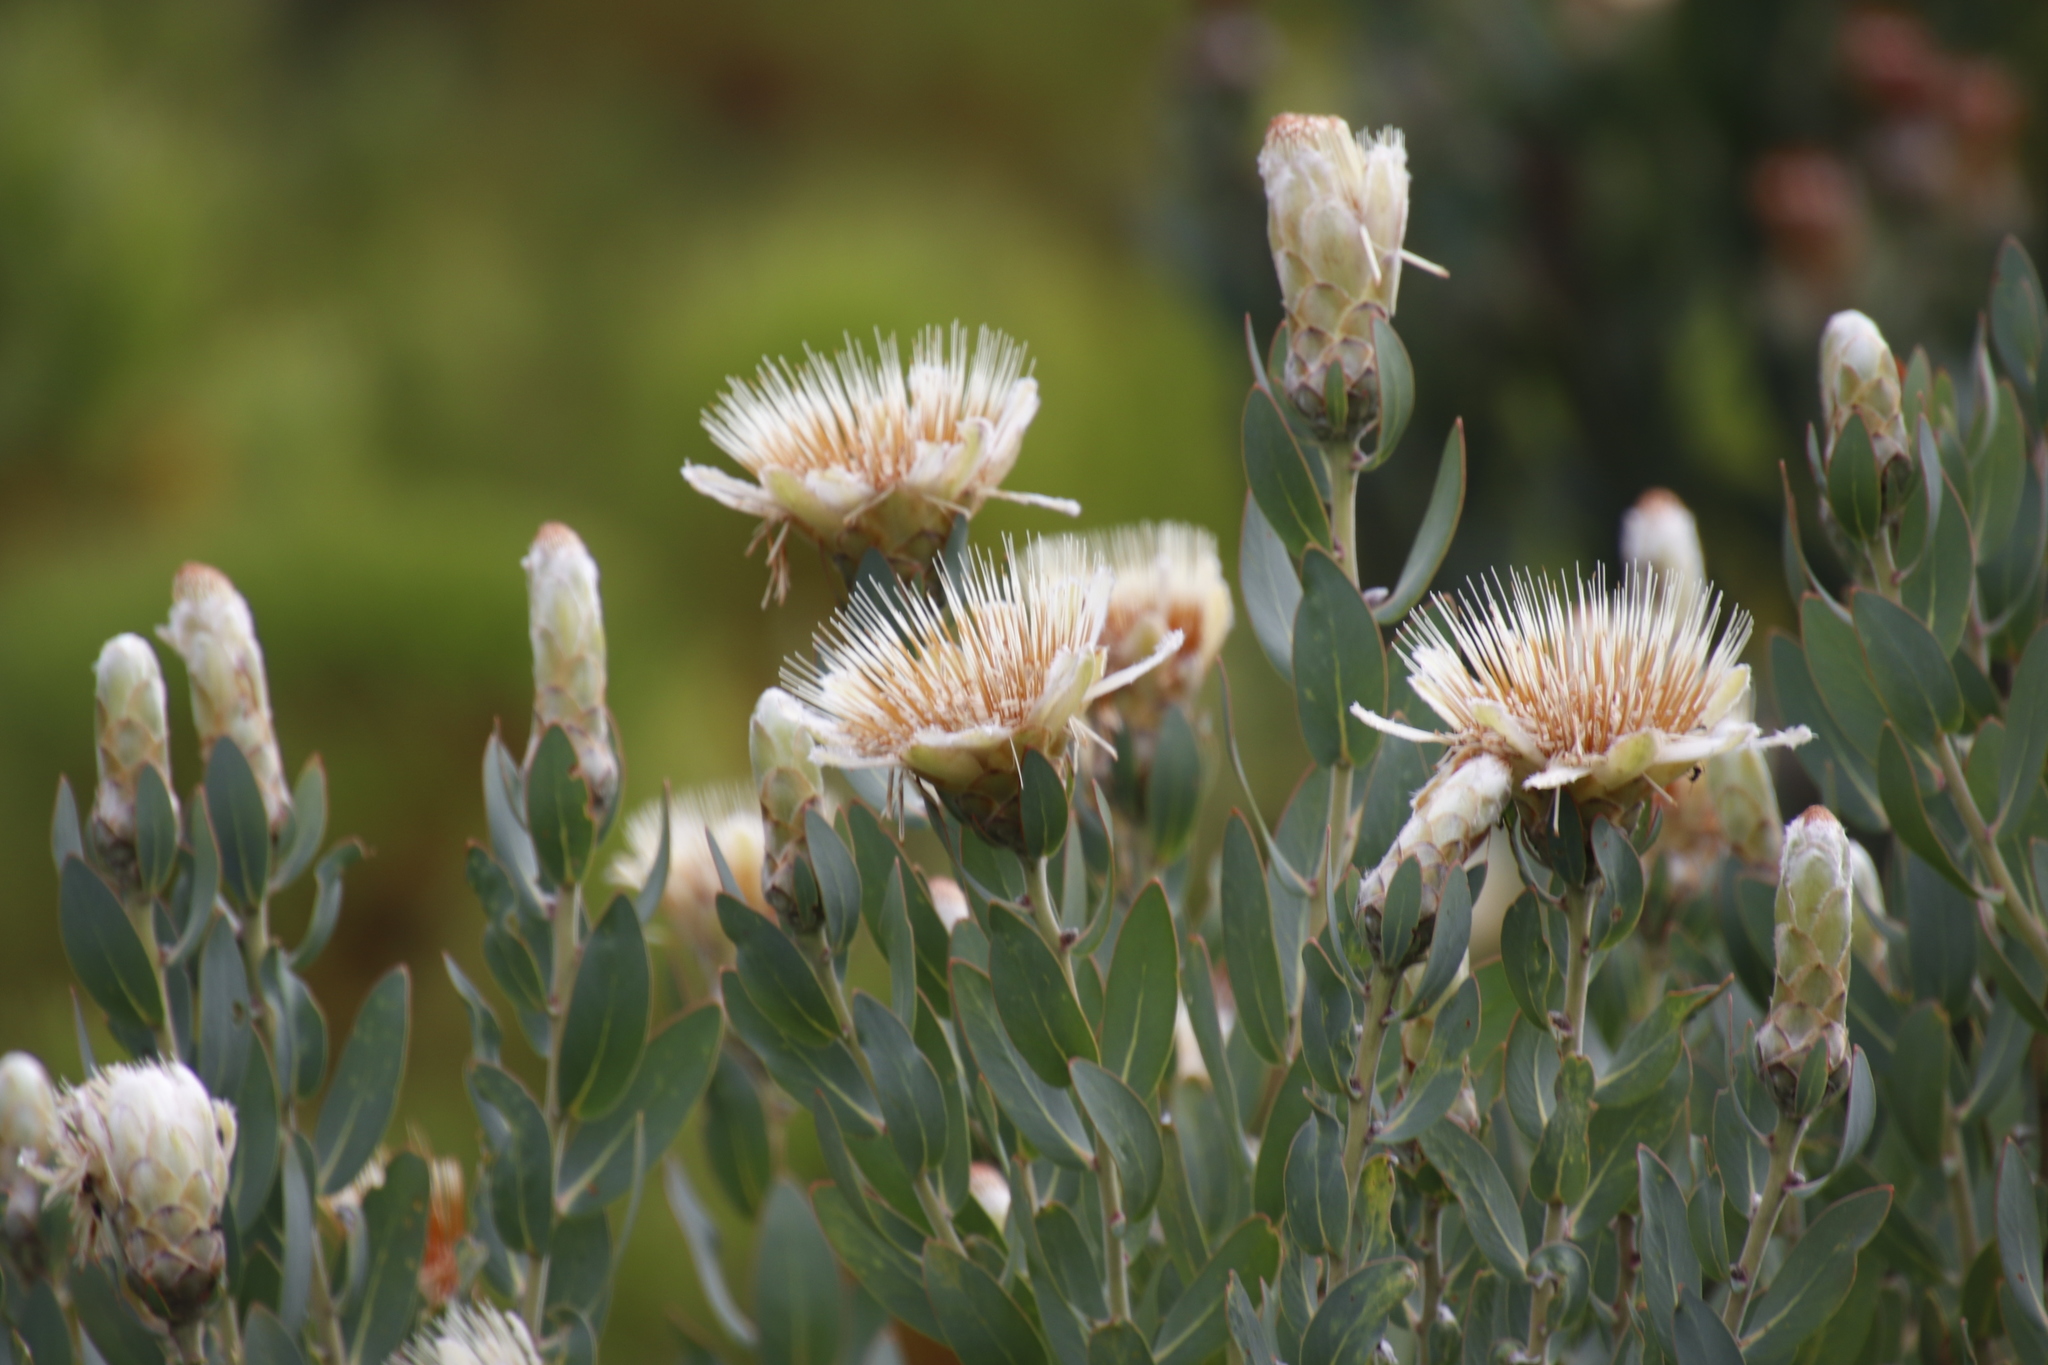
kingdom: Plantae
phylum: Tracheophyta
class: Magnoliopsida
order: Proteales
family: Proteaceae
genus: Protea
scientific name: Protea lacticolor
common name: Hottentot sugarbush
